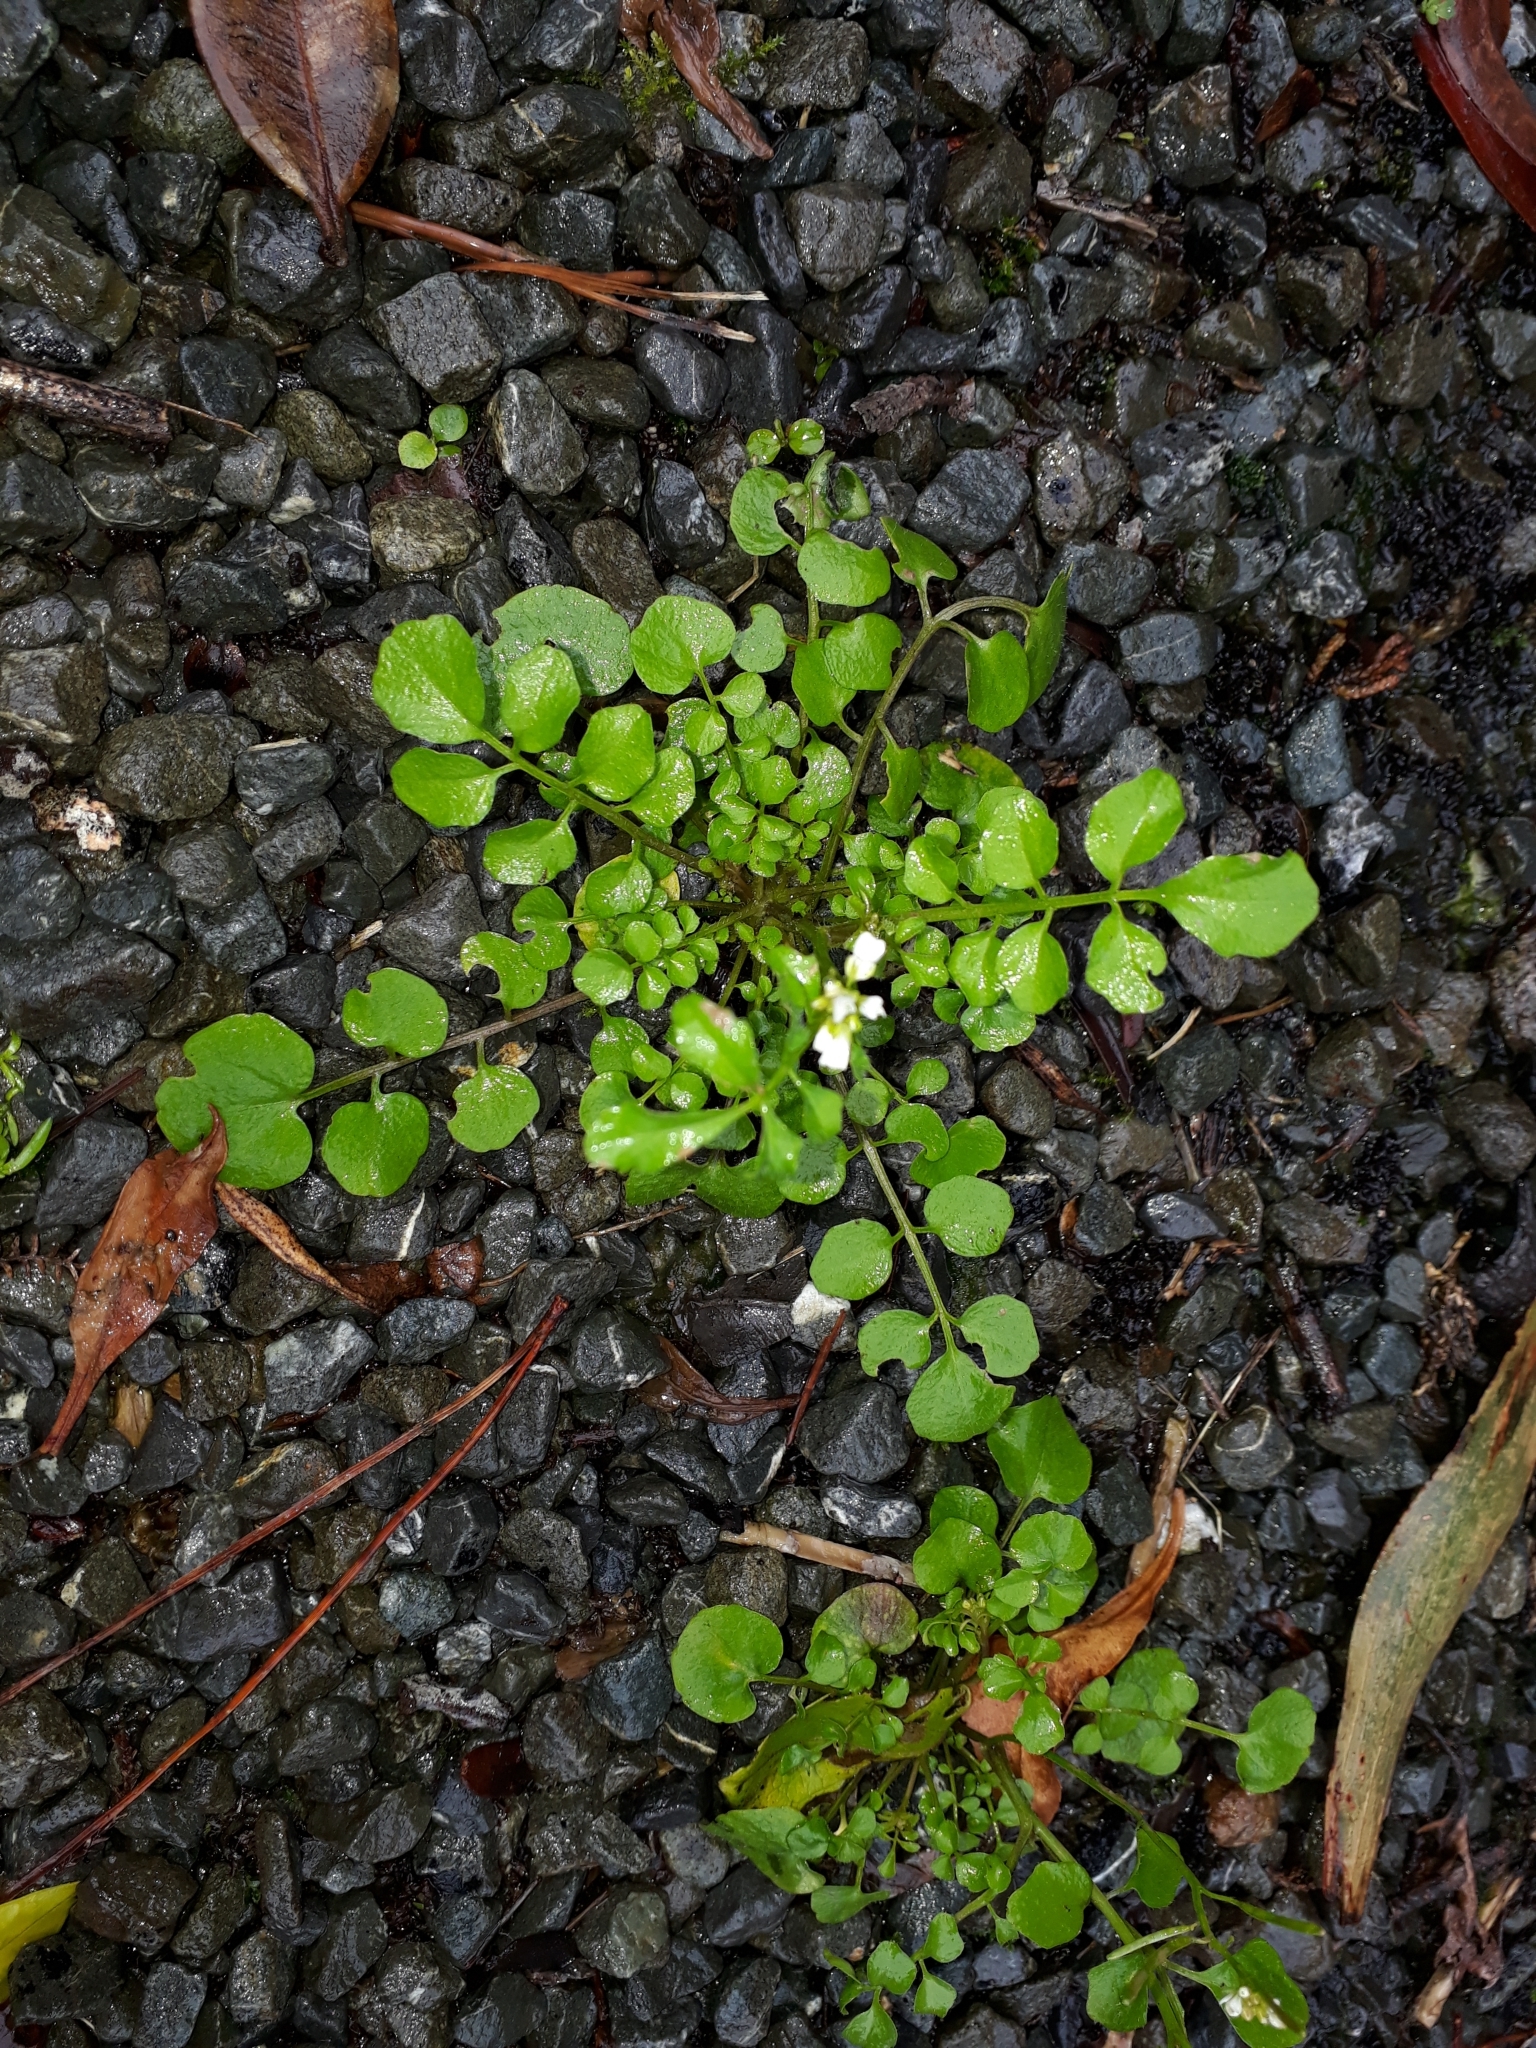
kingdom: Plantae
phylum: Tracheophyta
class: Magnoliopsida
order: Brassicales
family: Brassicaceae
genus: Cardamine
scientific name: Cardamine hirsuta
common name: Hairy bittercress
